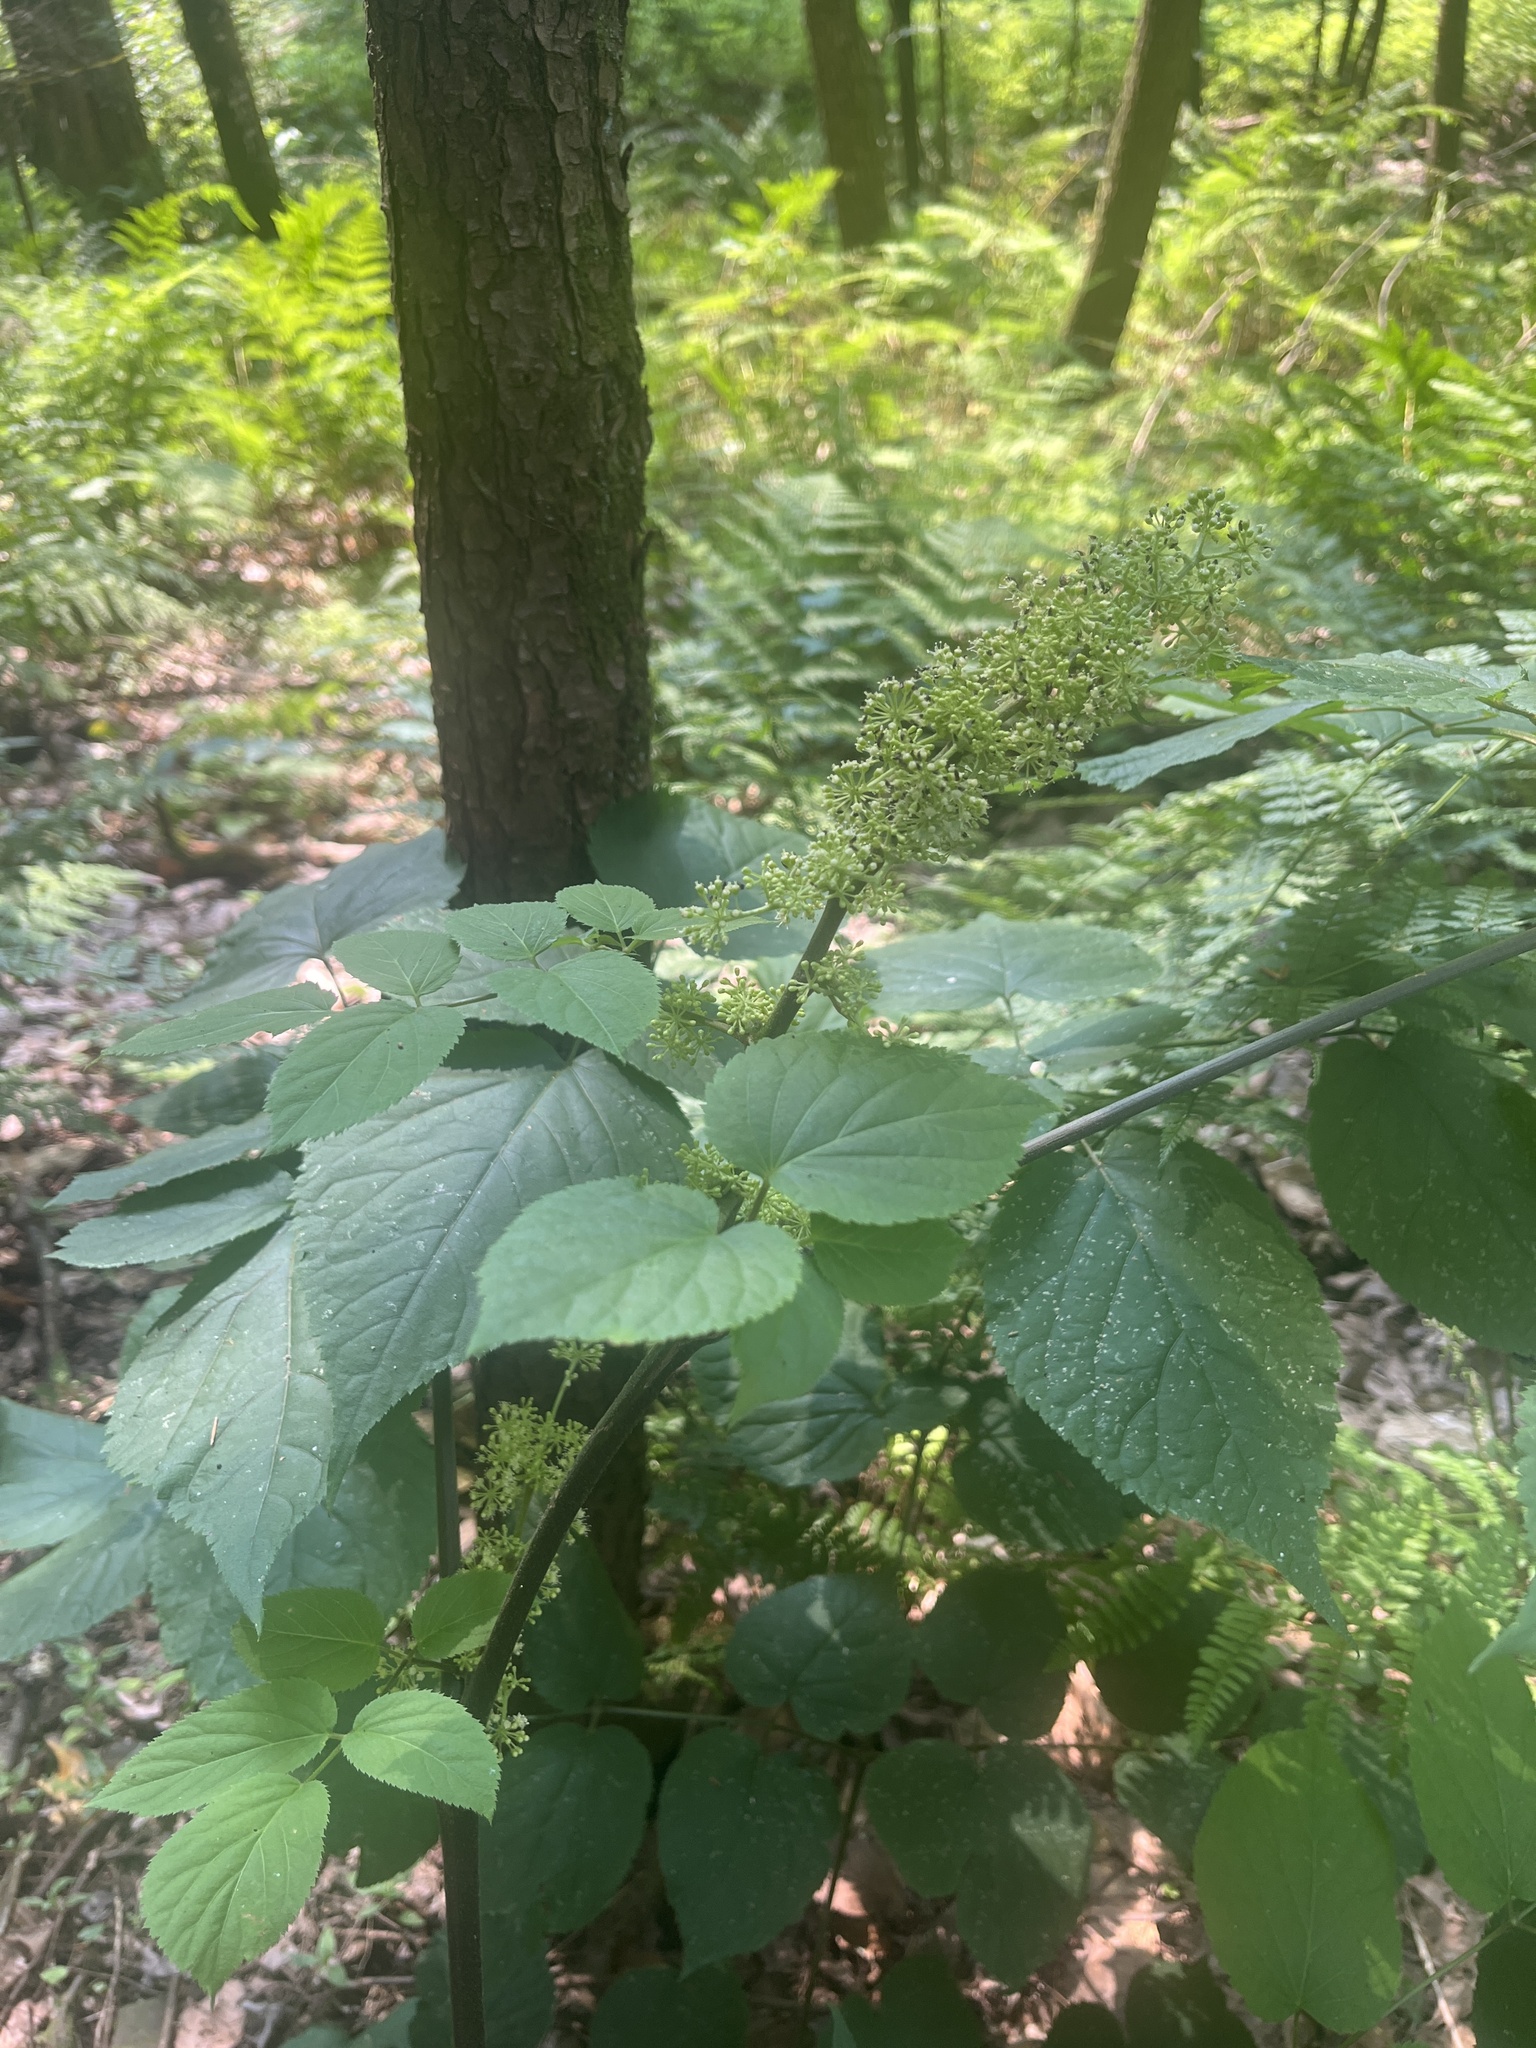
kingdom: Plantae
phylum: Tracheophyta
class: Magnoliopsida
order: Apiales
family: Araliaceae
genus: Aralia
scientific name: Aralia racemosa
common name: American-spikenard
